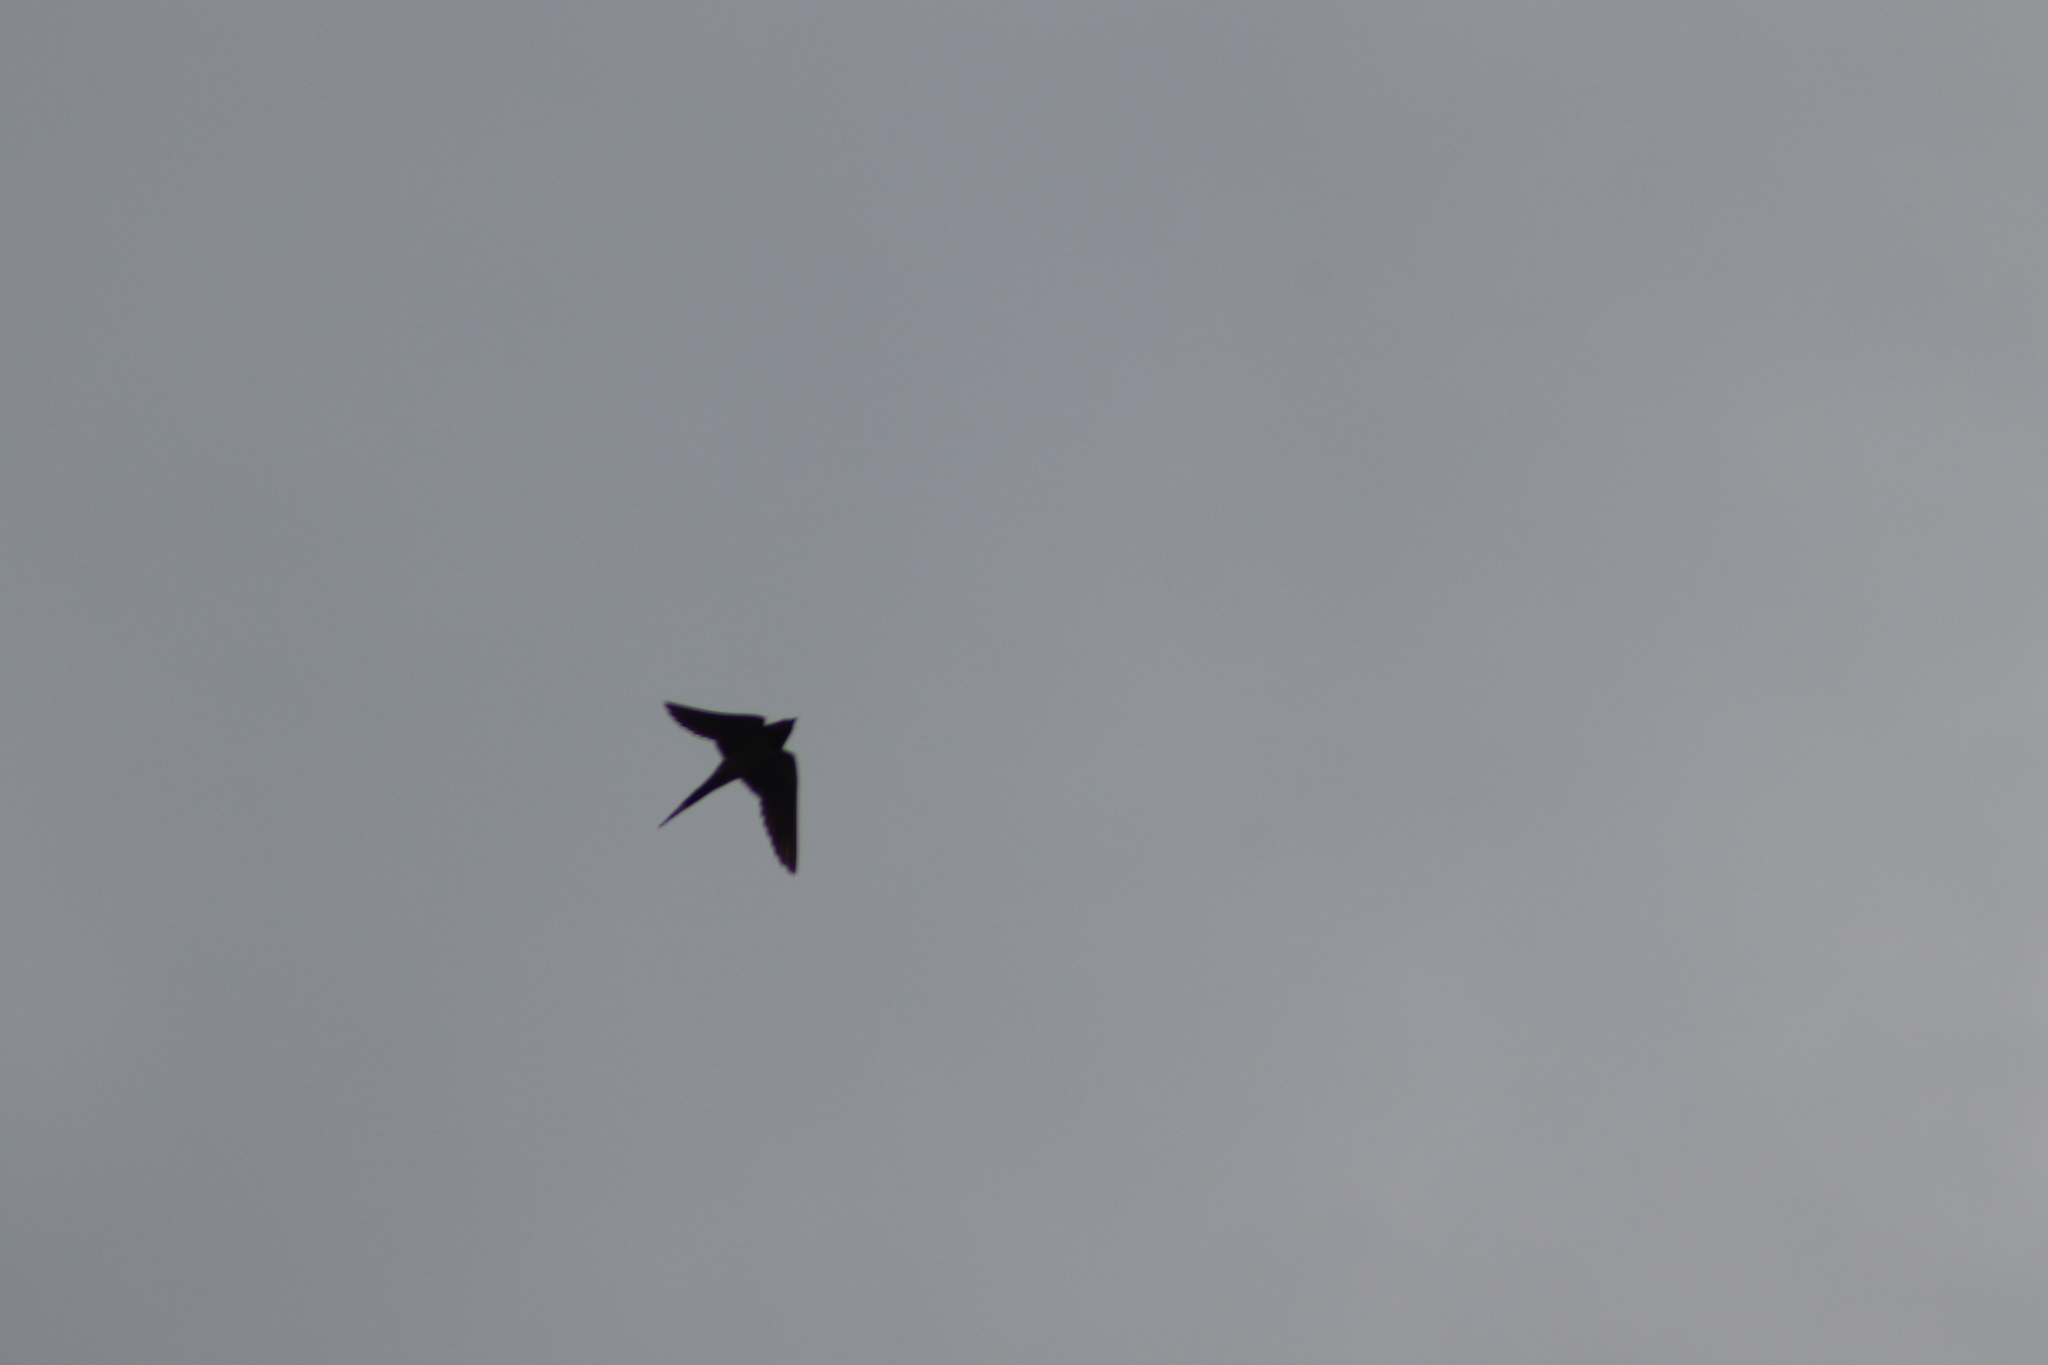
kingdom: Animalia
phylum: Chordata
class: Aves
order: Passeriformes
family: Hirundinidae
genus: Hirundo
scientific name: Hirundo rustica
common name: Barn swallow
